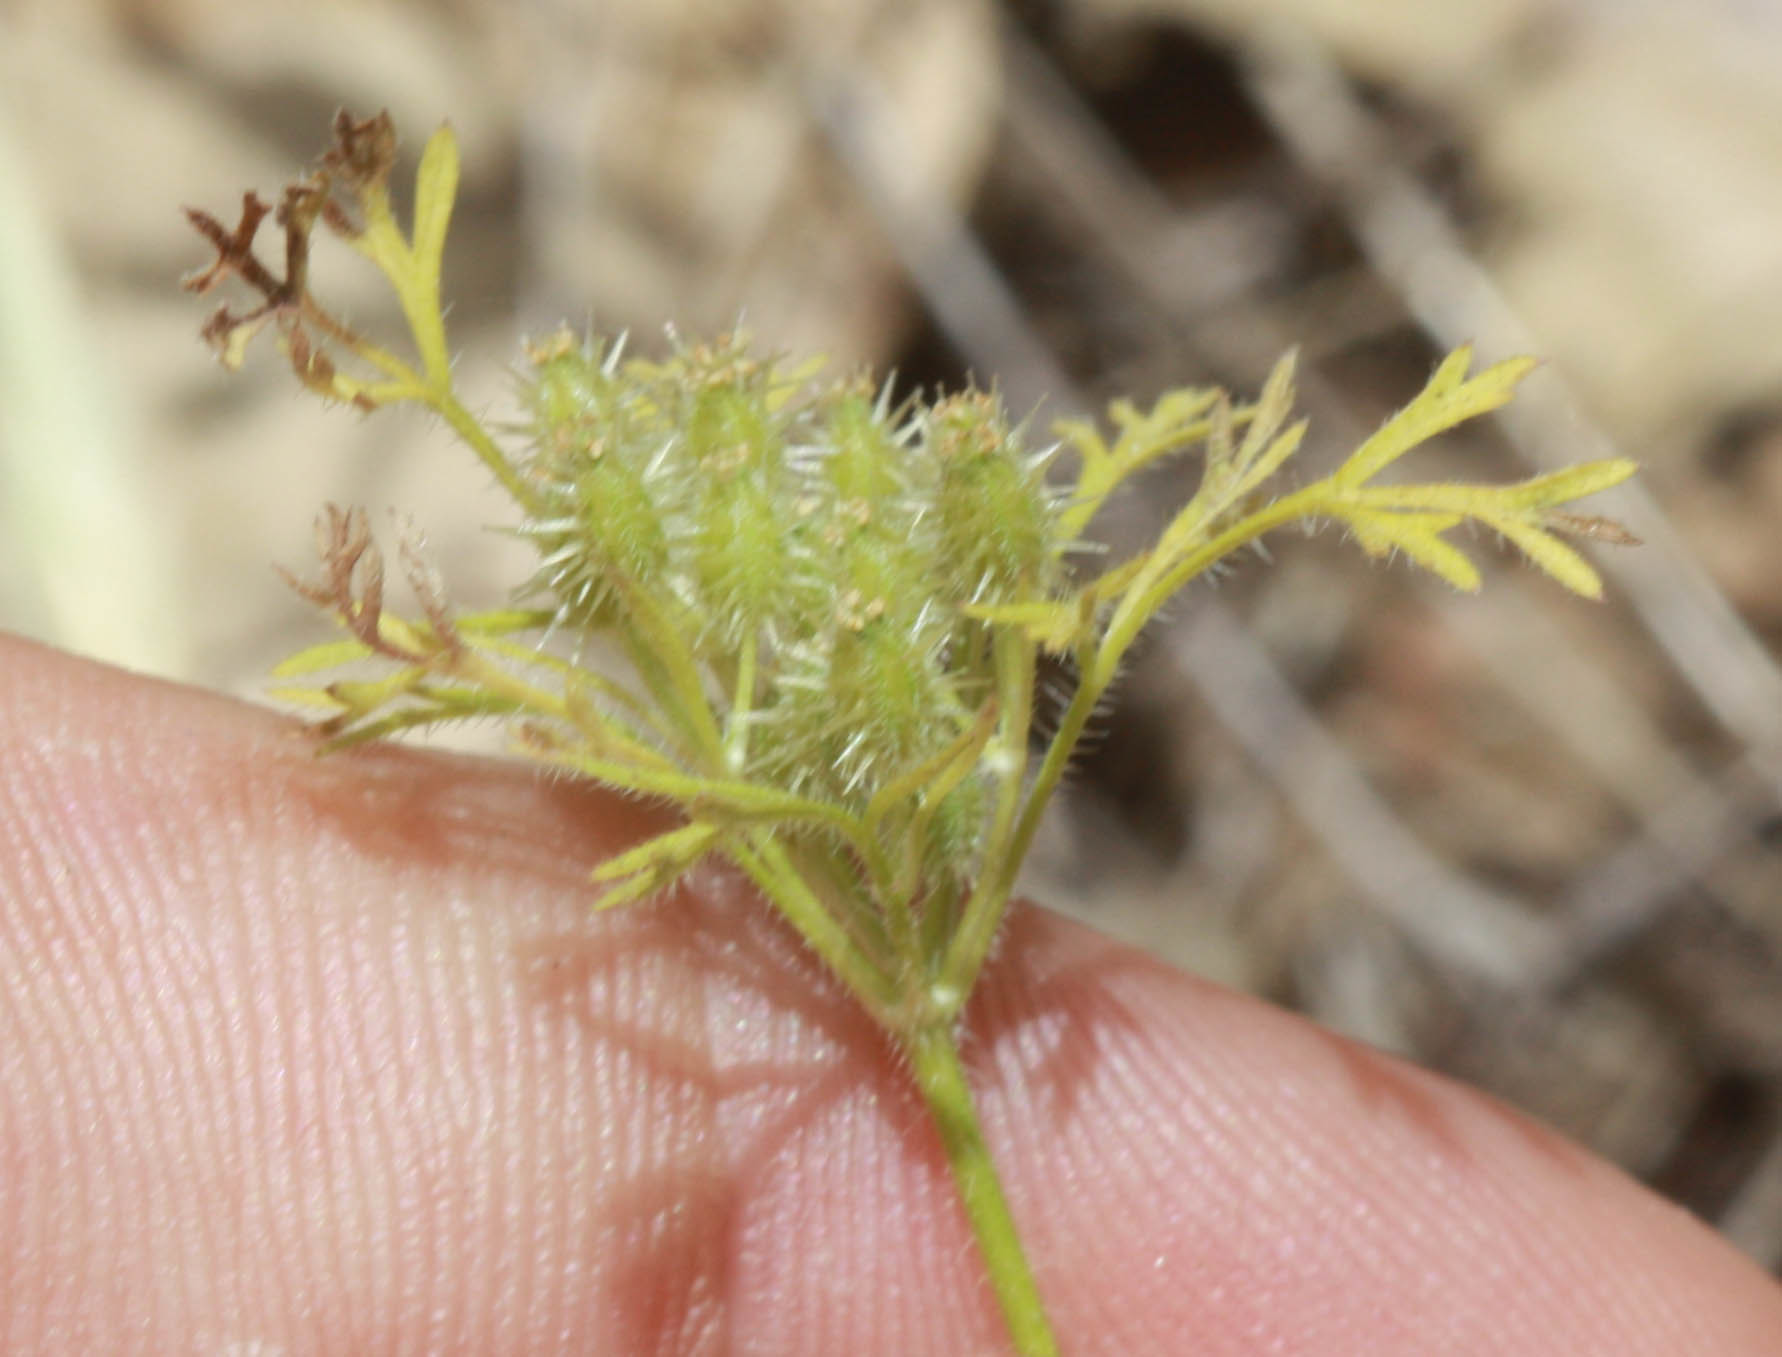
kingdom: Plantae
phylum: Tracheophyta
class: Magnoliopsida
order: Apiales
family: Apiaceae
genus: Daucus
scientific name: Daucus pusillus
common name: Southwest wild carrot
